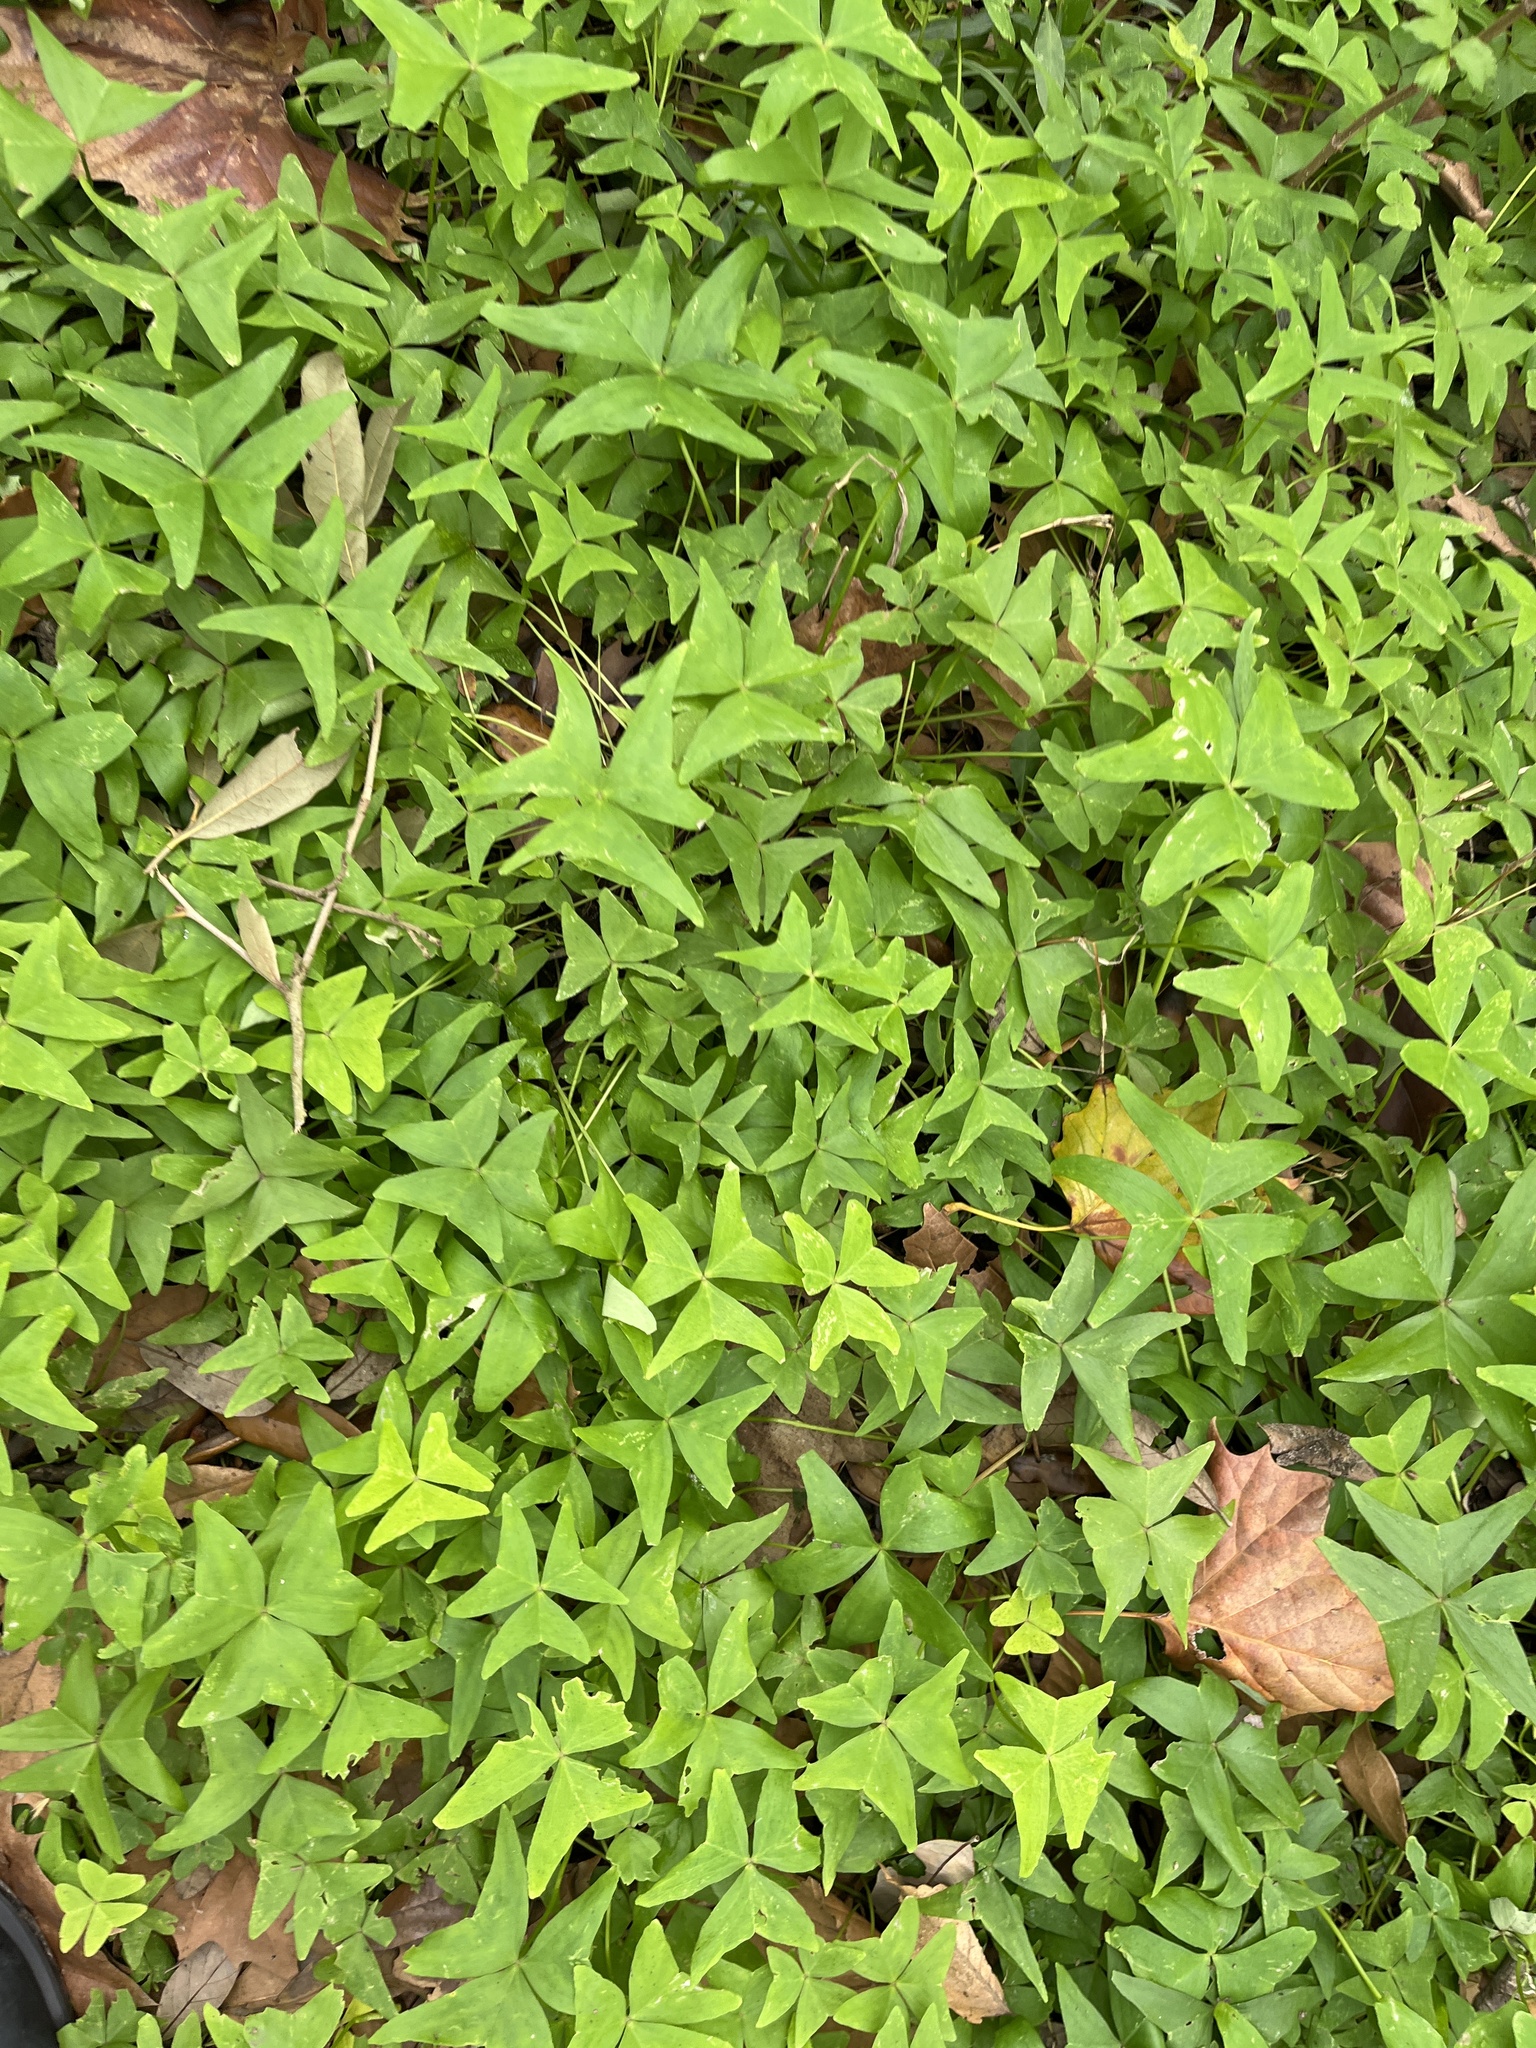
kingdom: Plantae
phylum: Tracheophyta
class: Magnoliopsida
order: Oxalidales
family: Oxalidaceae
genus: Oxalis
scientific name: Oxalis intermedia
